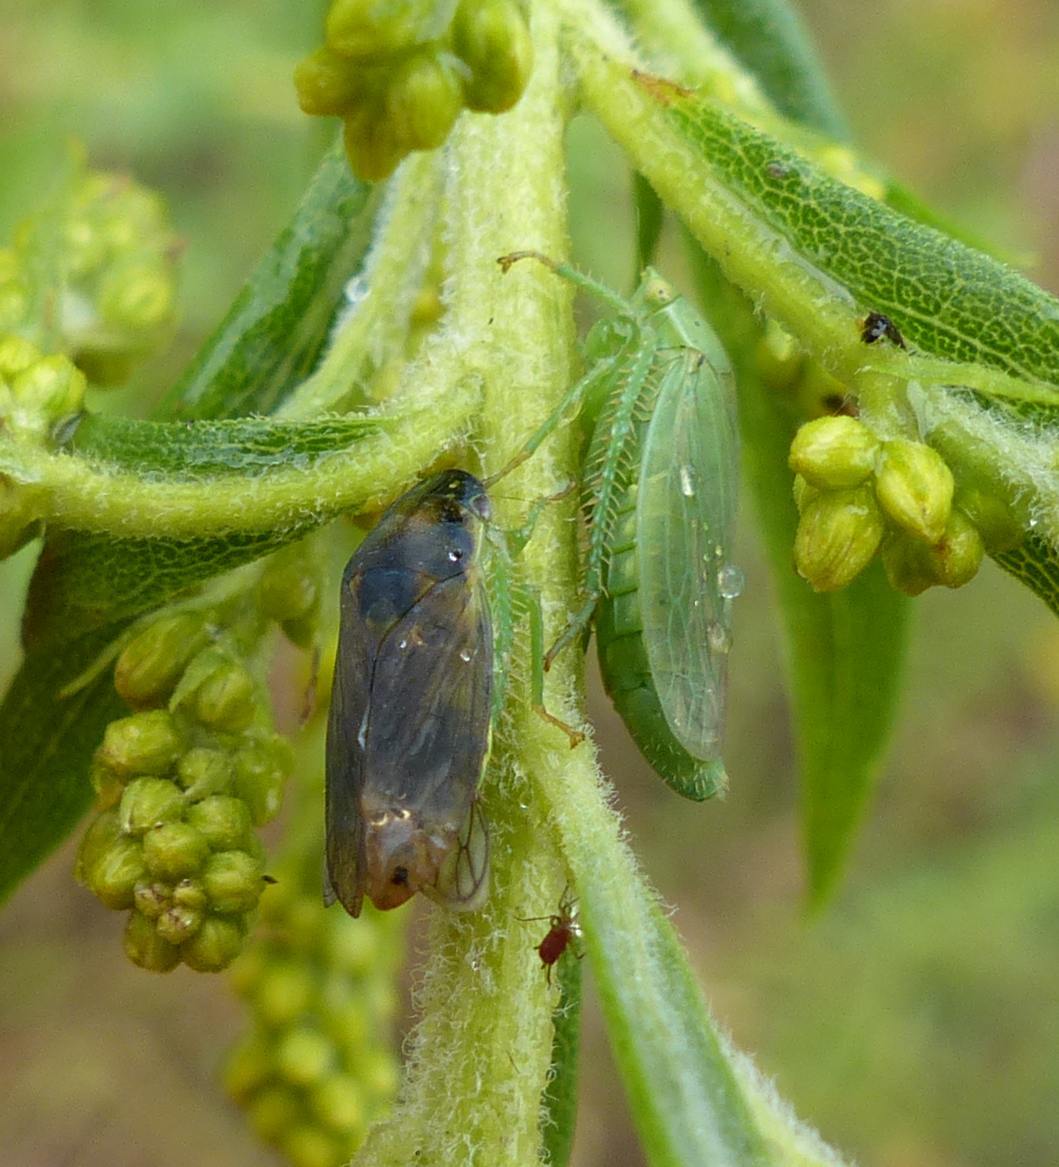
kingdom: Animalia
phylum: Arthropoda
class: Insecta
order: Hemiptera
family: Cicadellidae
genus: Gypona
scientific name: Gypona melanota
